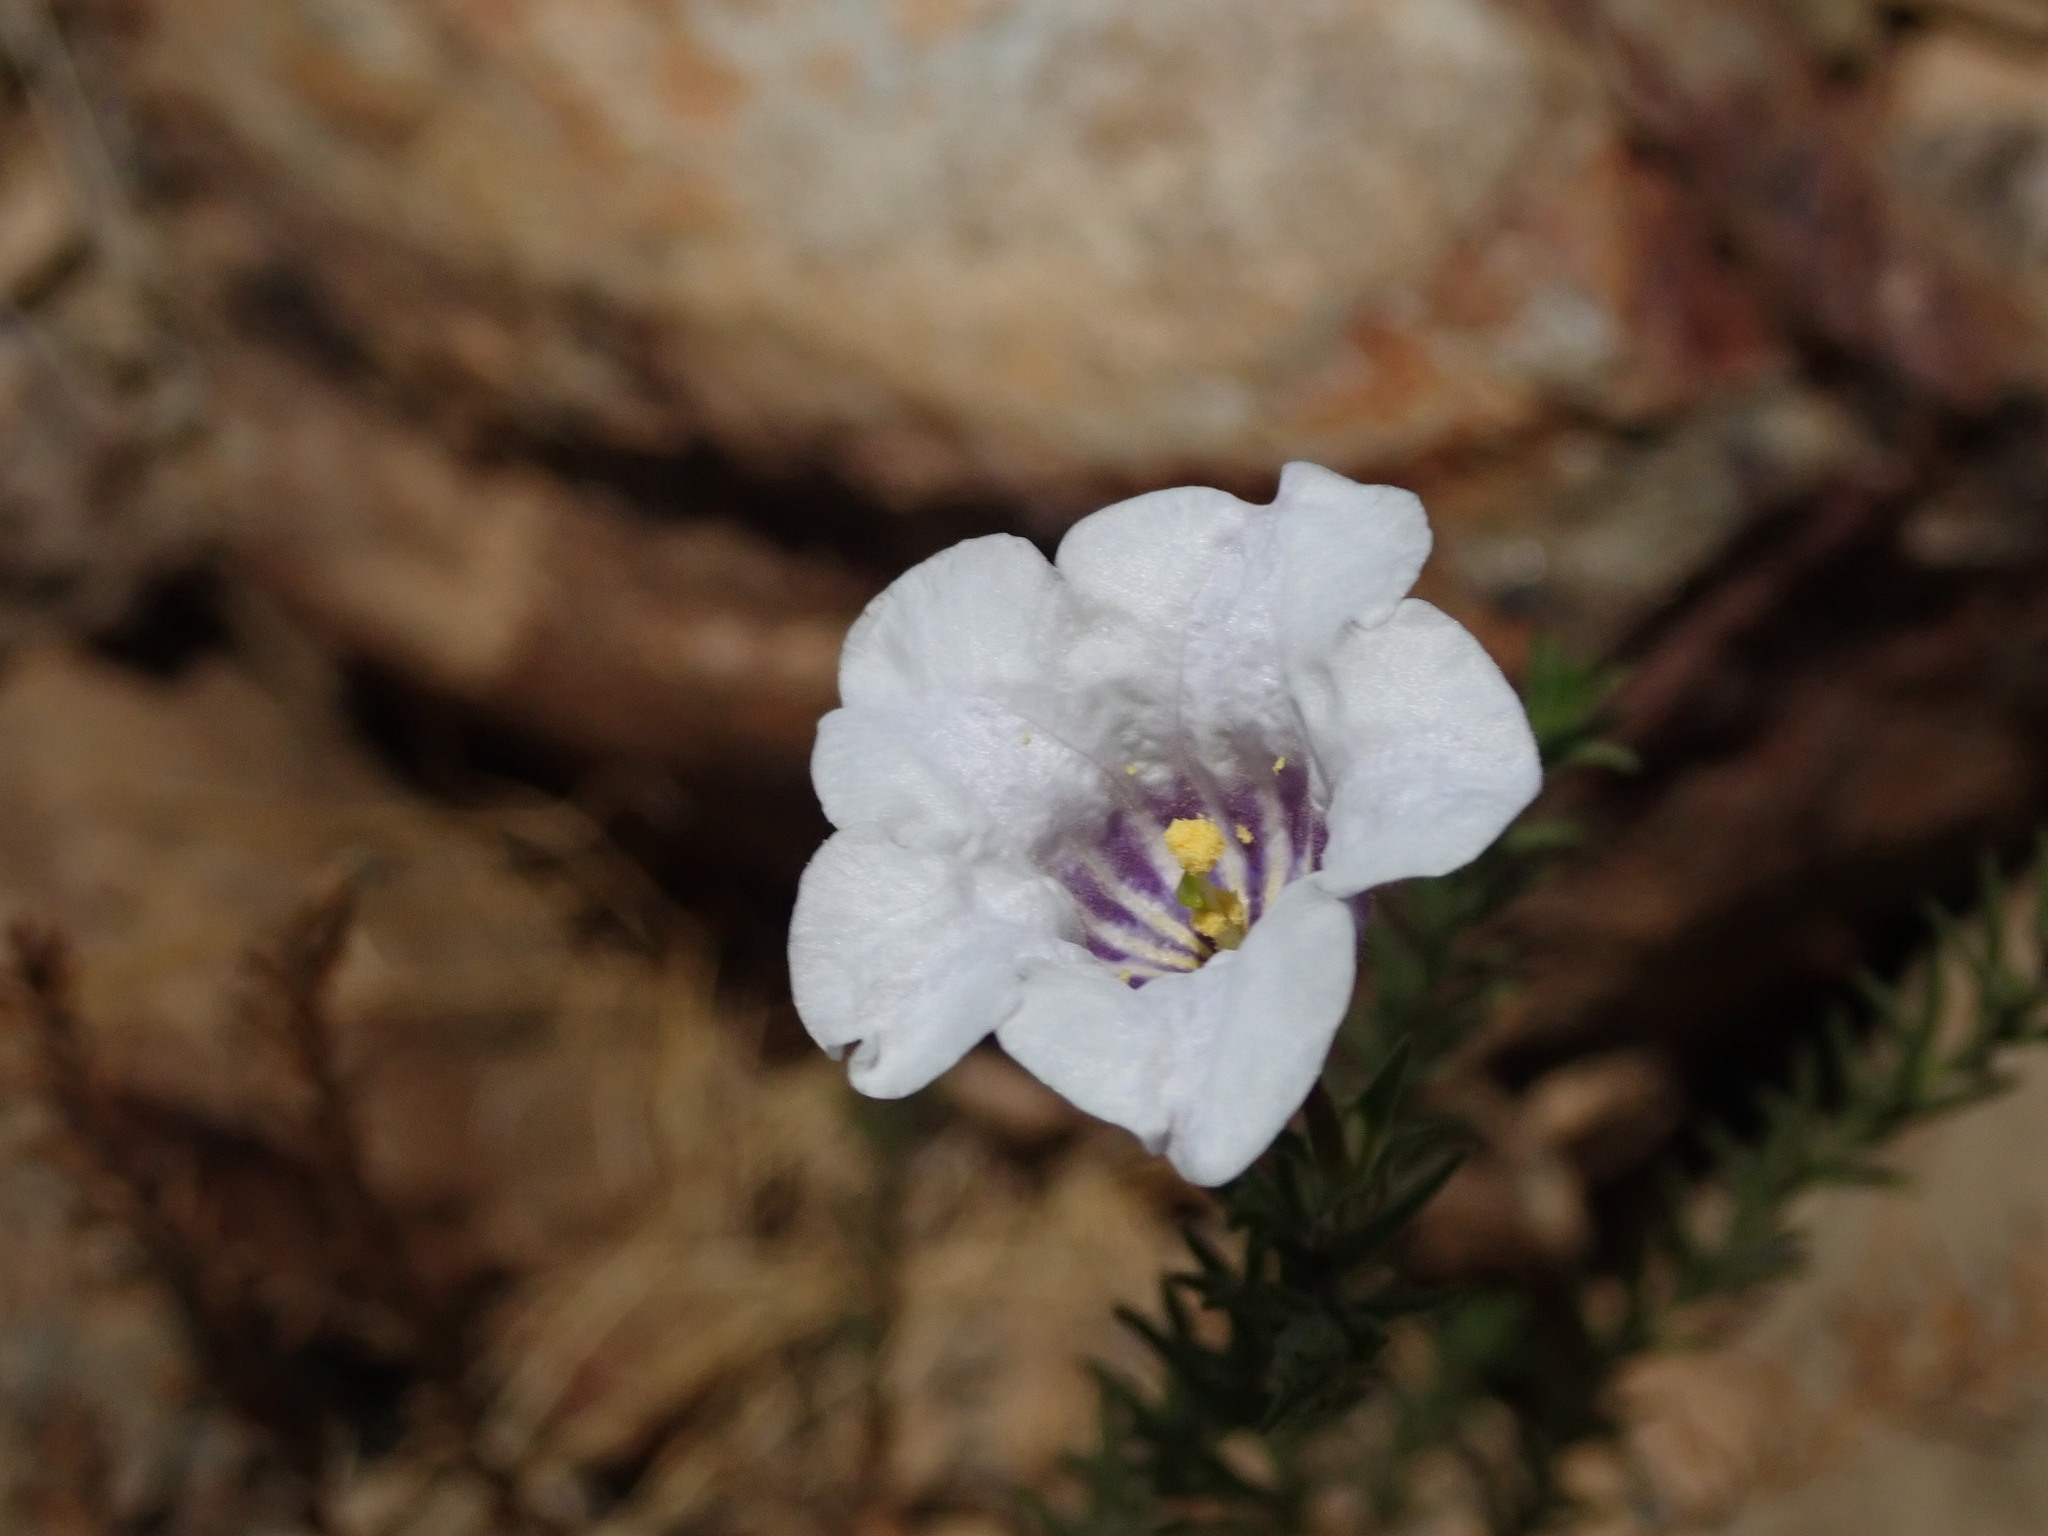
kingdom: Plantae
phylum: Tracheophyta
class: Magnoliopsida
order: Solanales
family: Solanaceae
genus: Nierembergia
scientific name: Nierembergia pulchella
